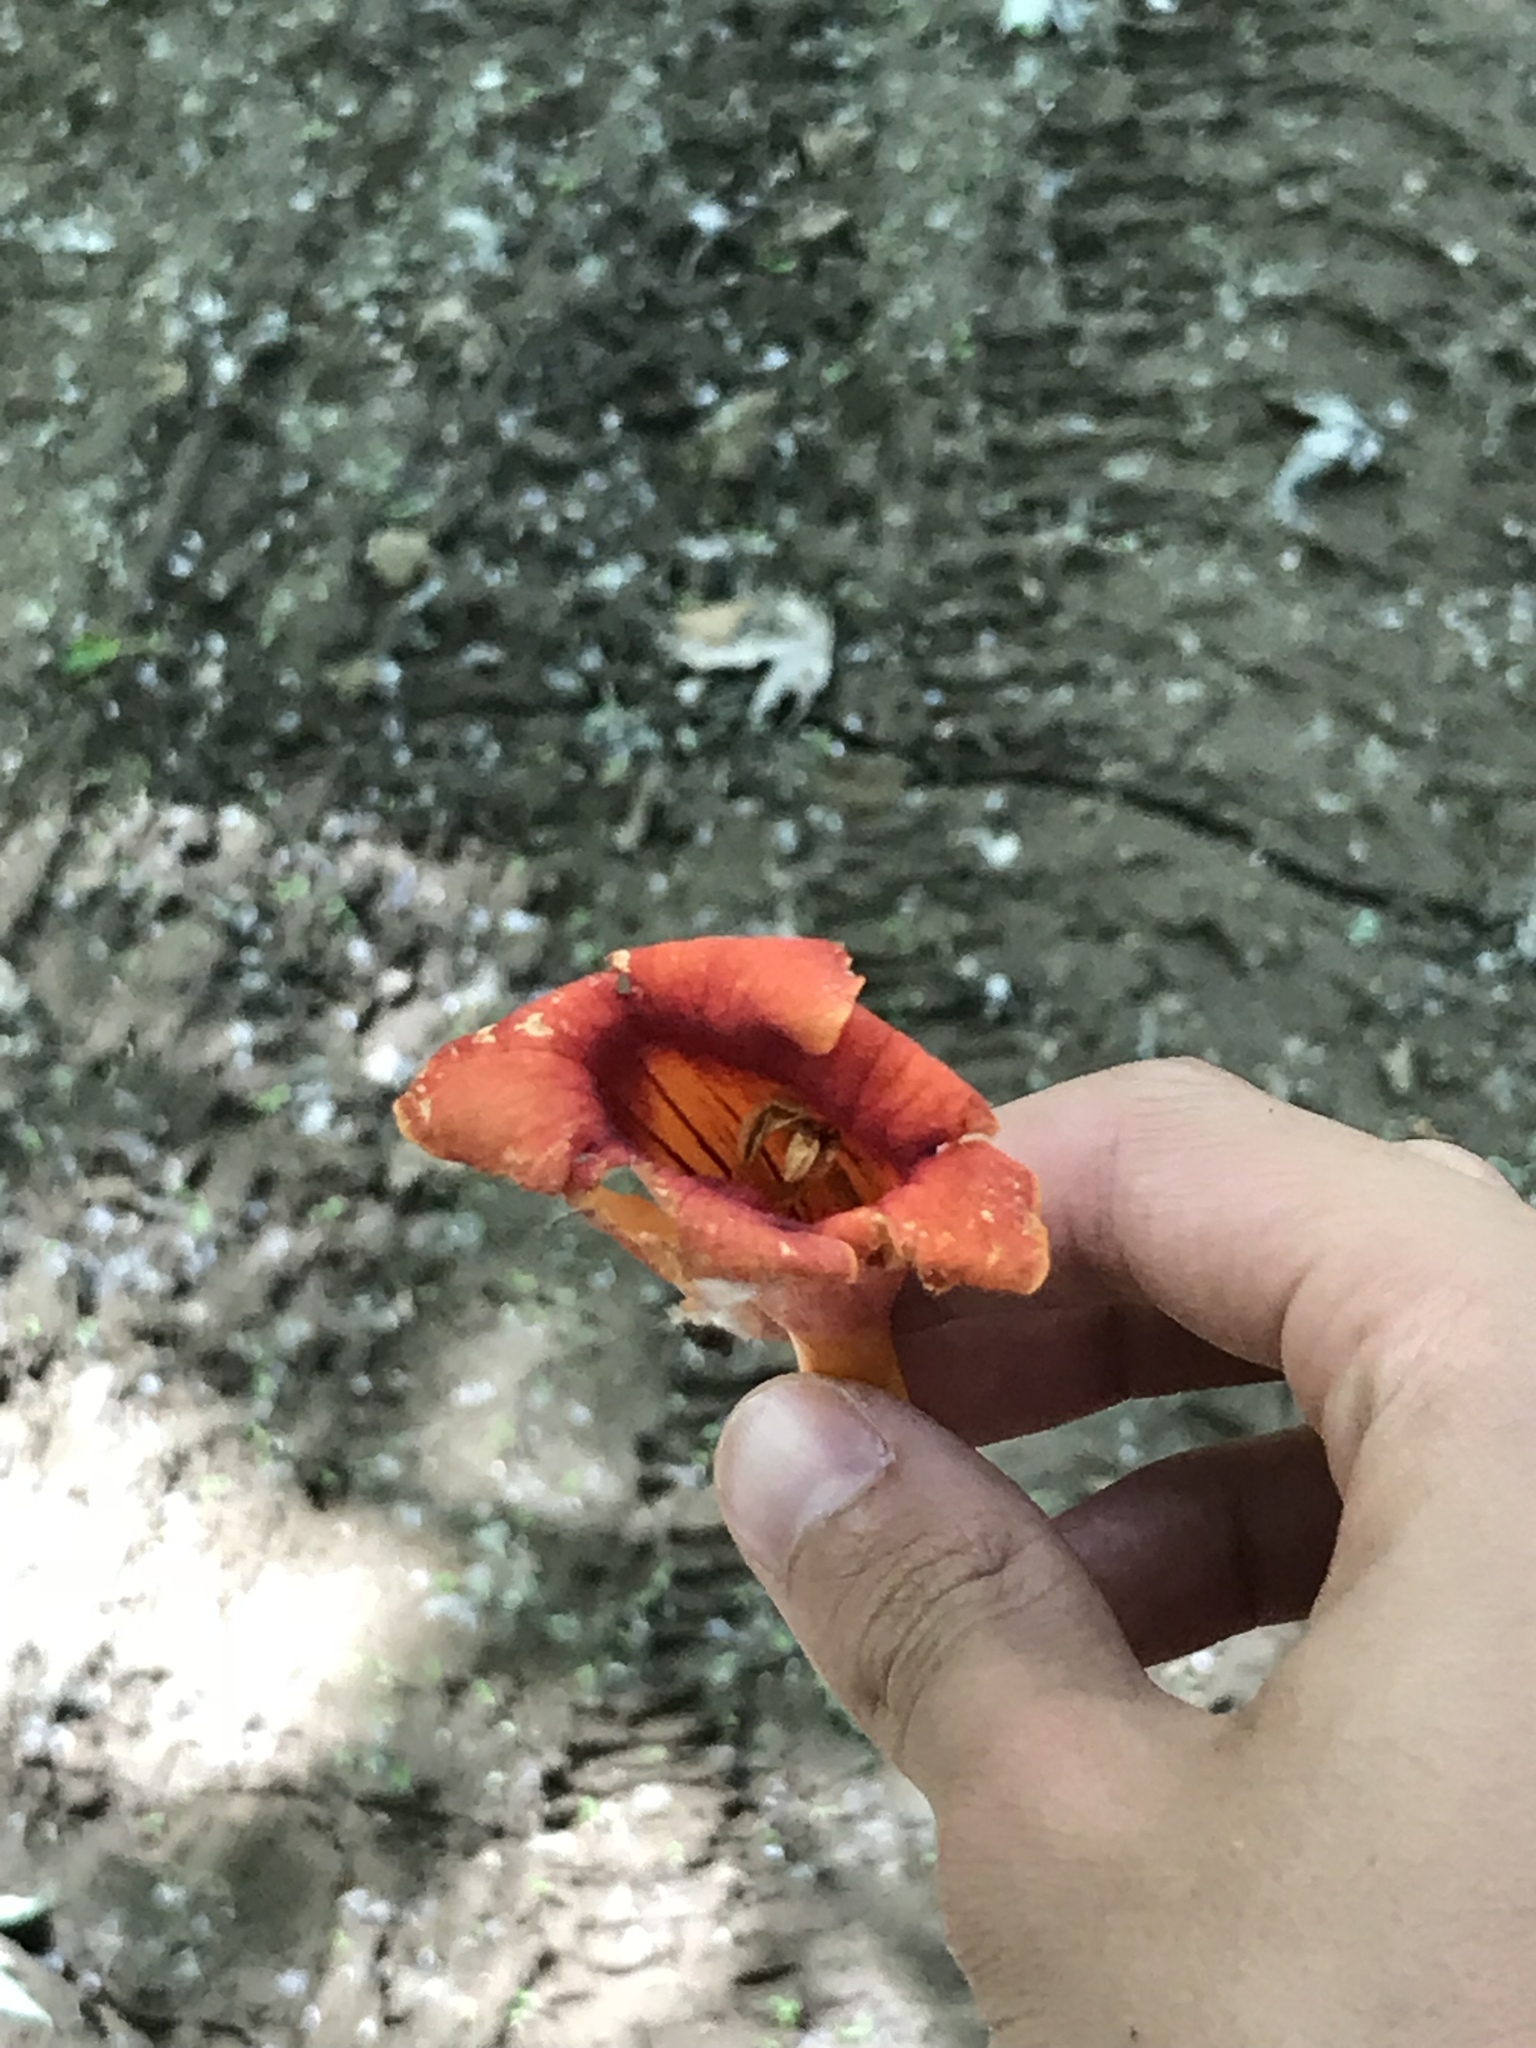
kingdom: Plantae
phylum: Tracheophyta
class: Magnoliopsida
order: Lamiales
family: Bignoniaceae
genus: Campsis
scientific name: Campsis radicans
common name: Trumpet-creeper
